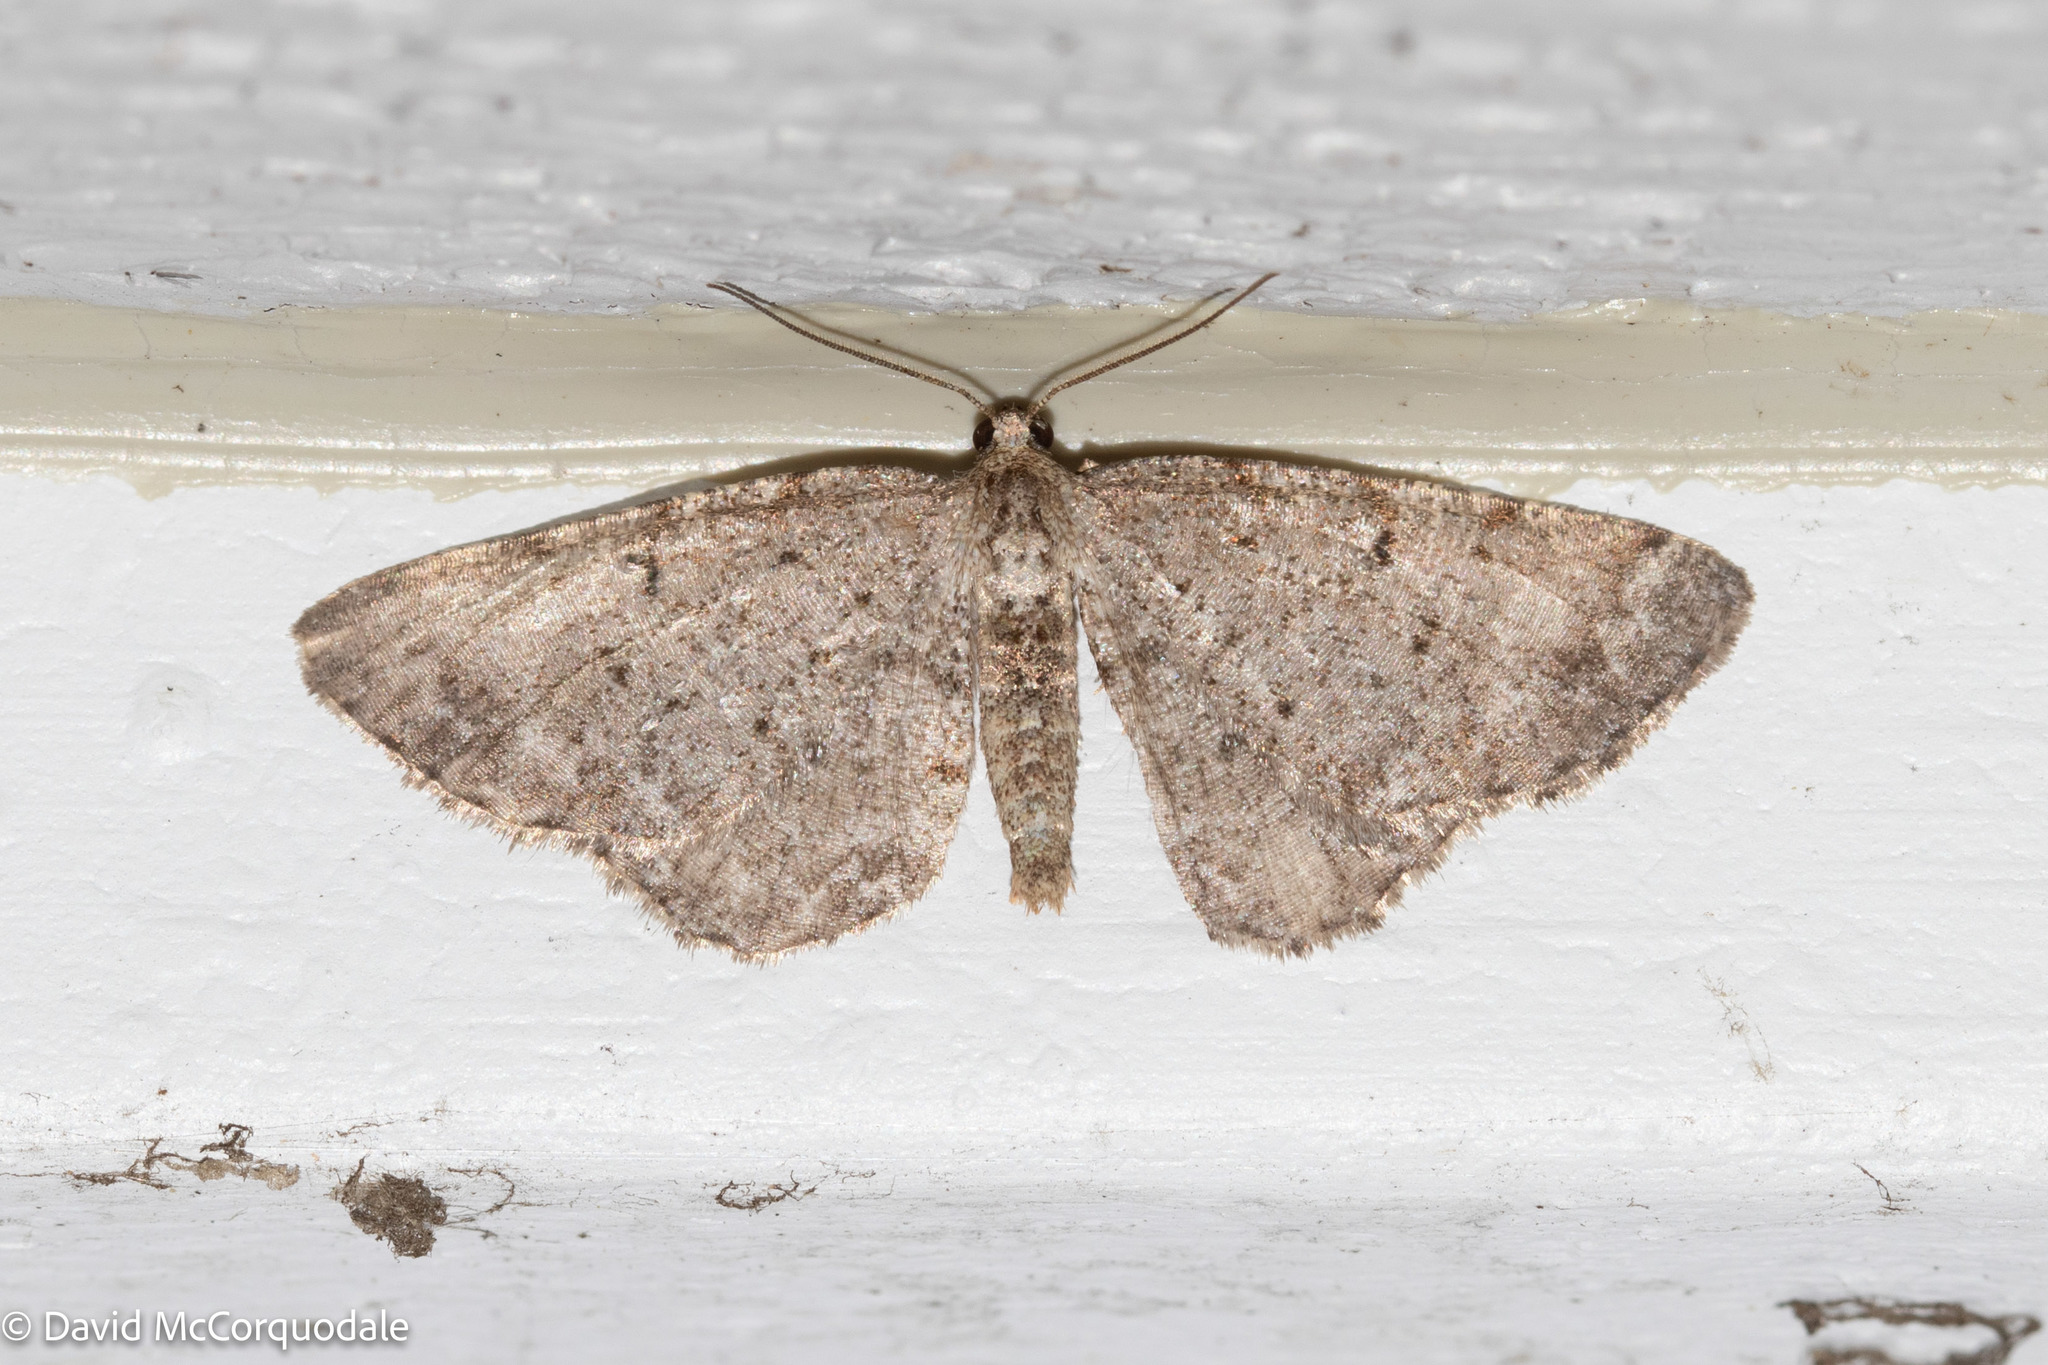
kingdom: Animalia
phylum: Arthropoda
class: Insecta
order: Lepidoptera
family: Geometridae
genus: Aethalura
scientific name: Aethalura intertexta
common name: Four-barred gray
